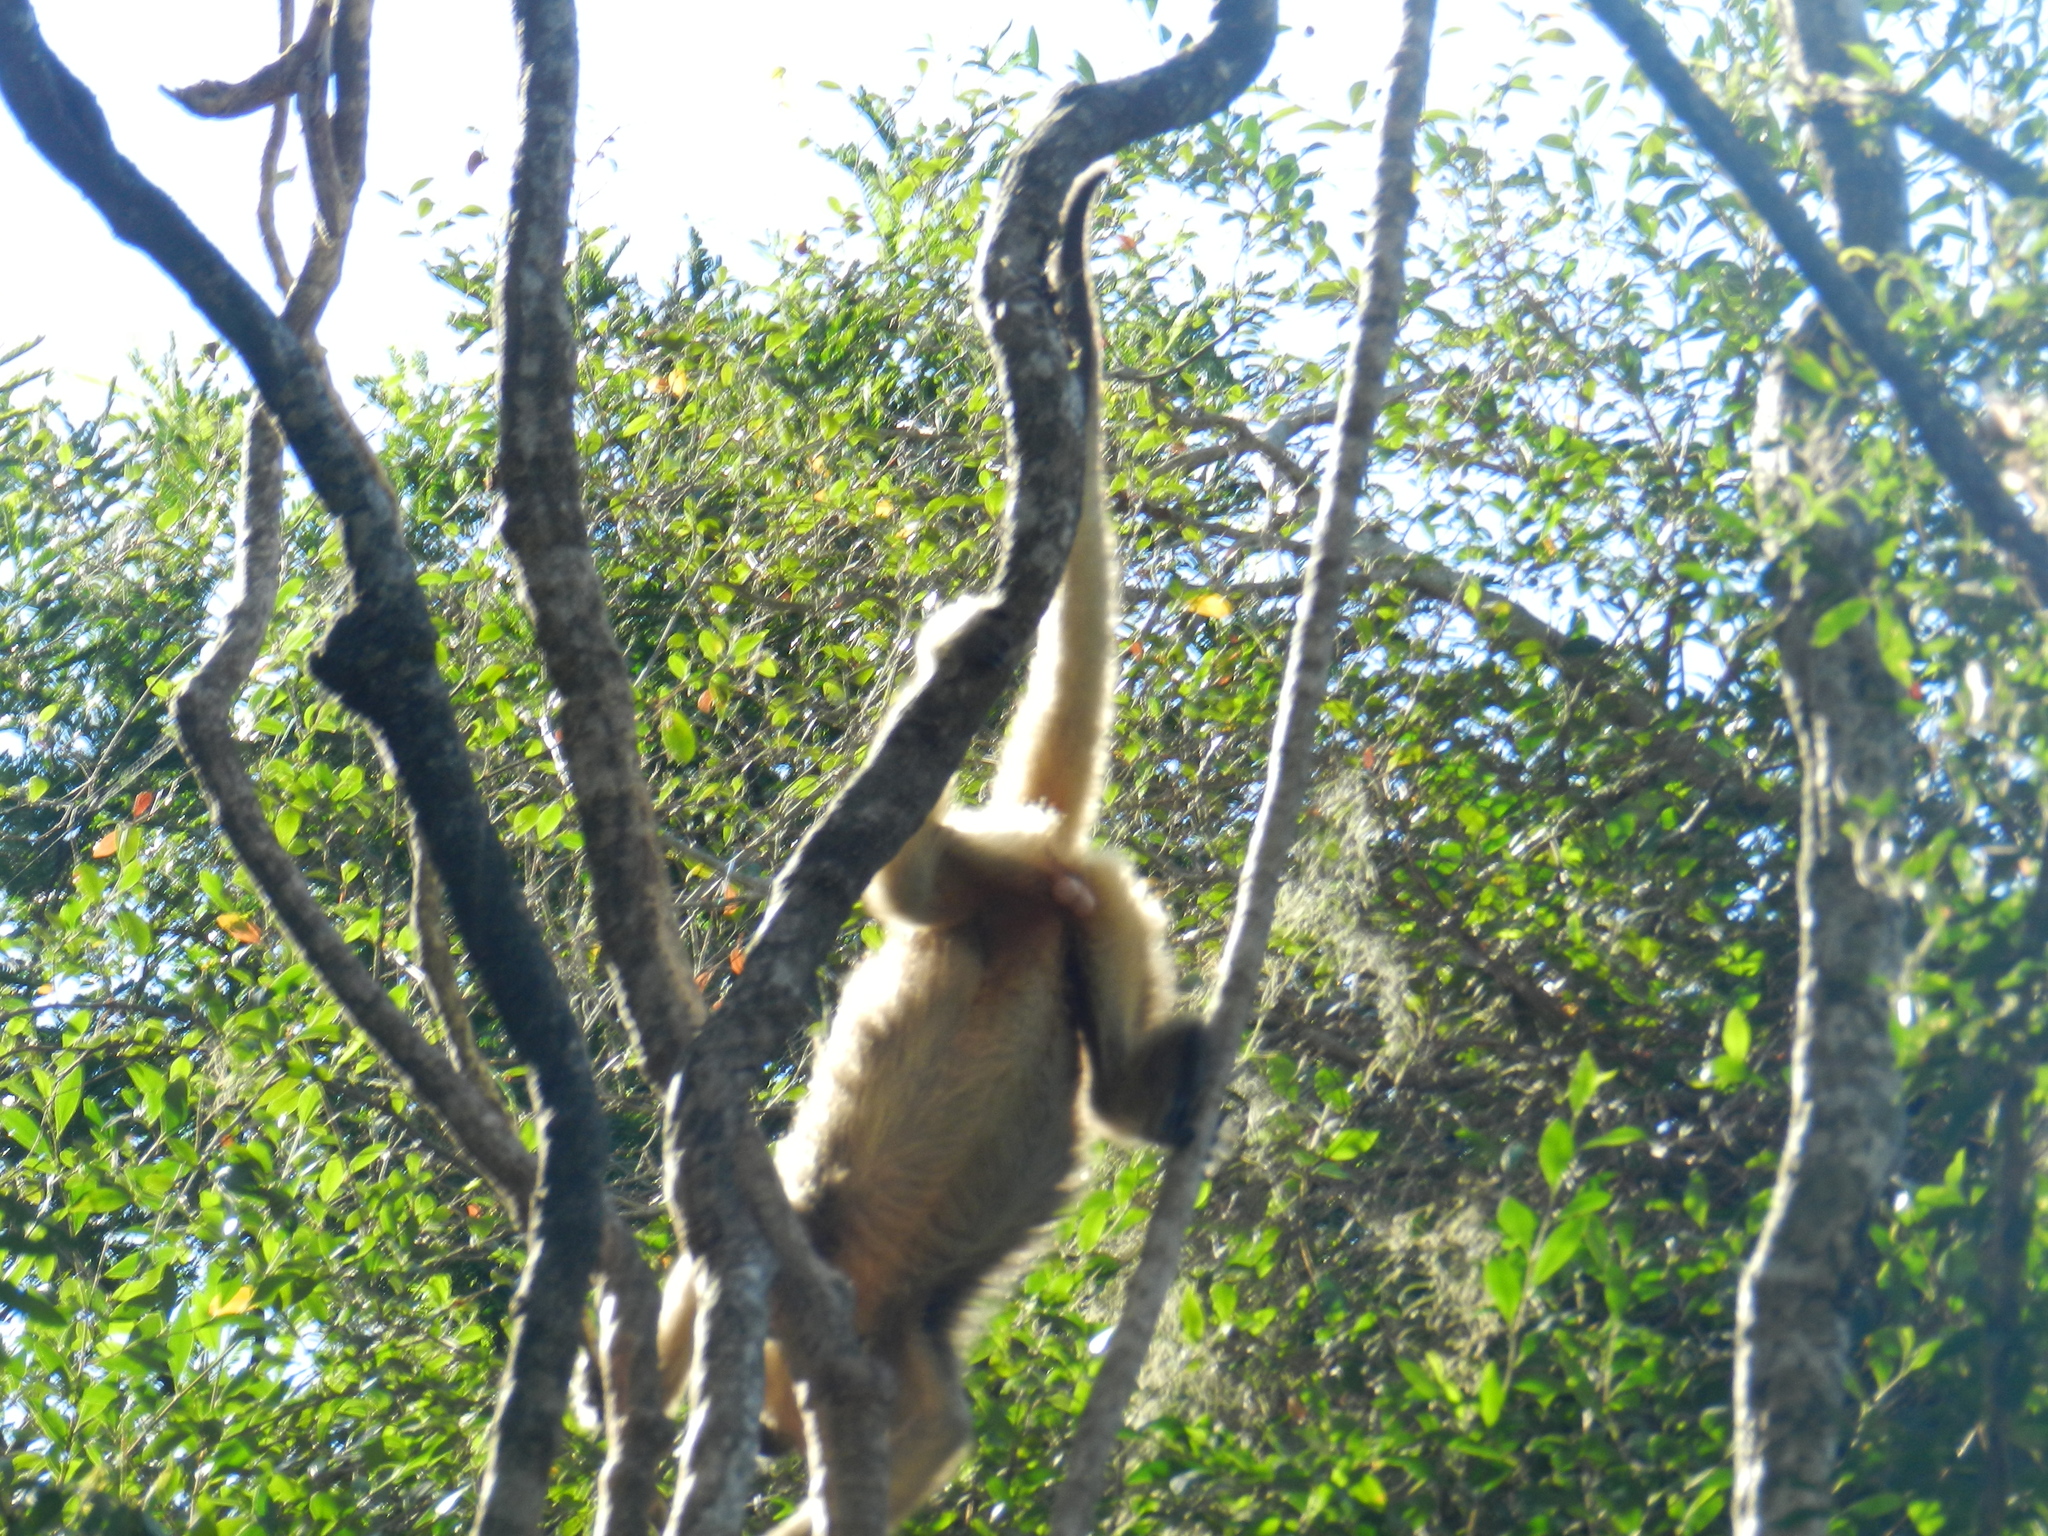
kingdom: Animalia
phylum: Chordata
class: Mammalia
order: Primates
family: Atelidae
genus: Alouatta
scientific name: Alouatta caraya
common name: Black howler
